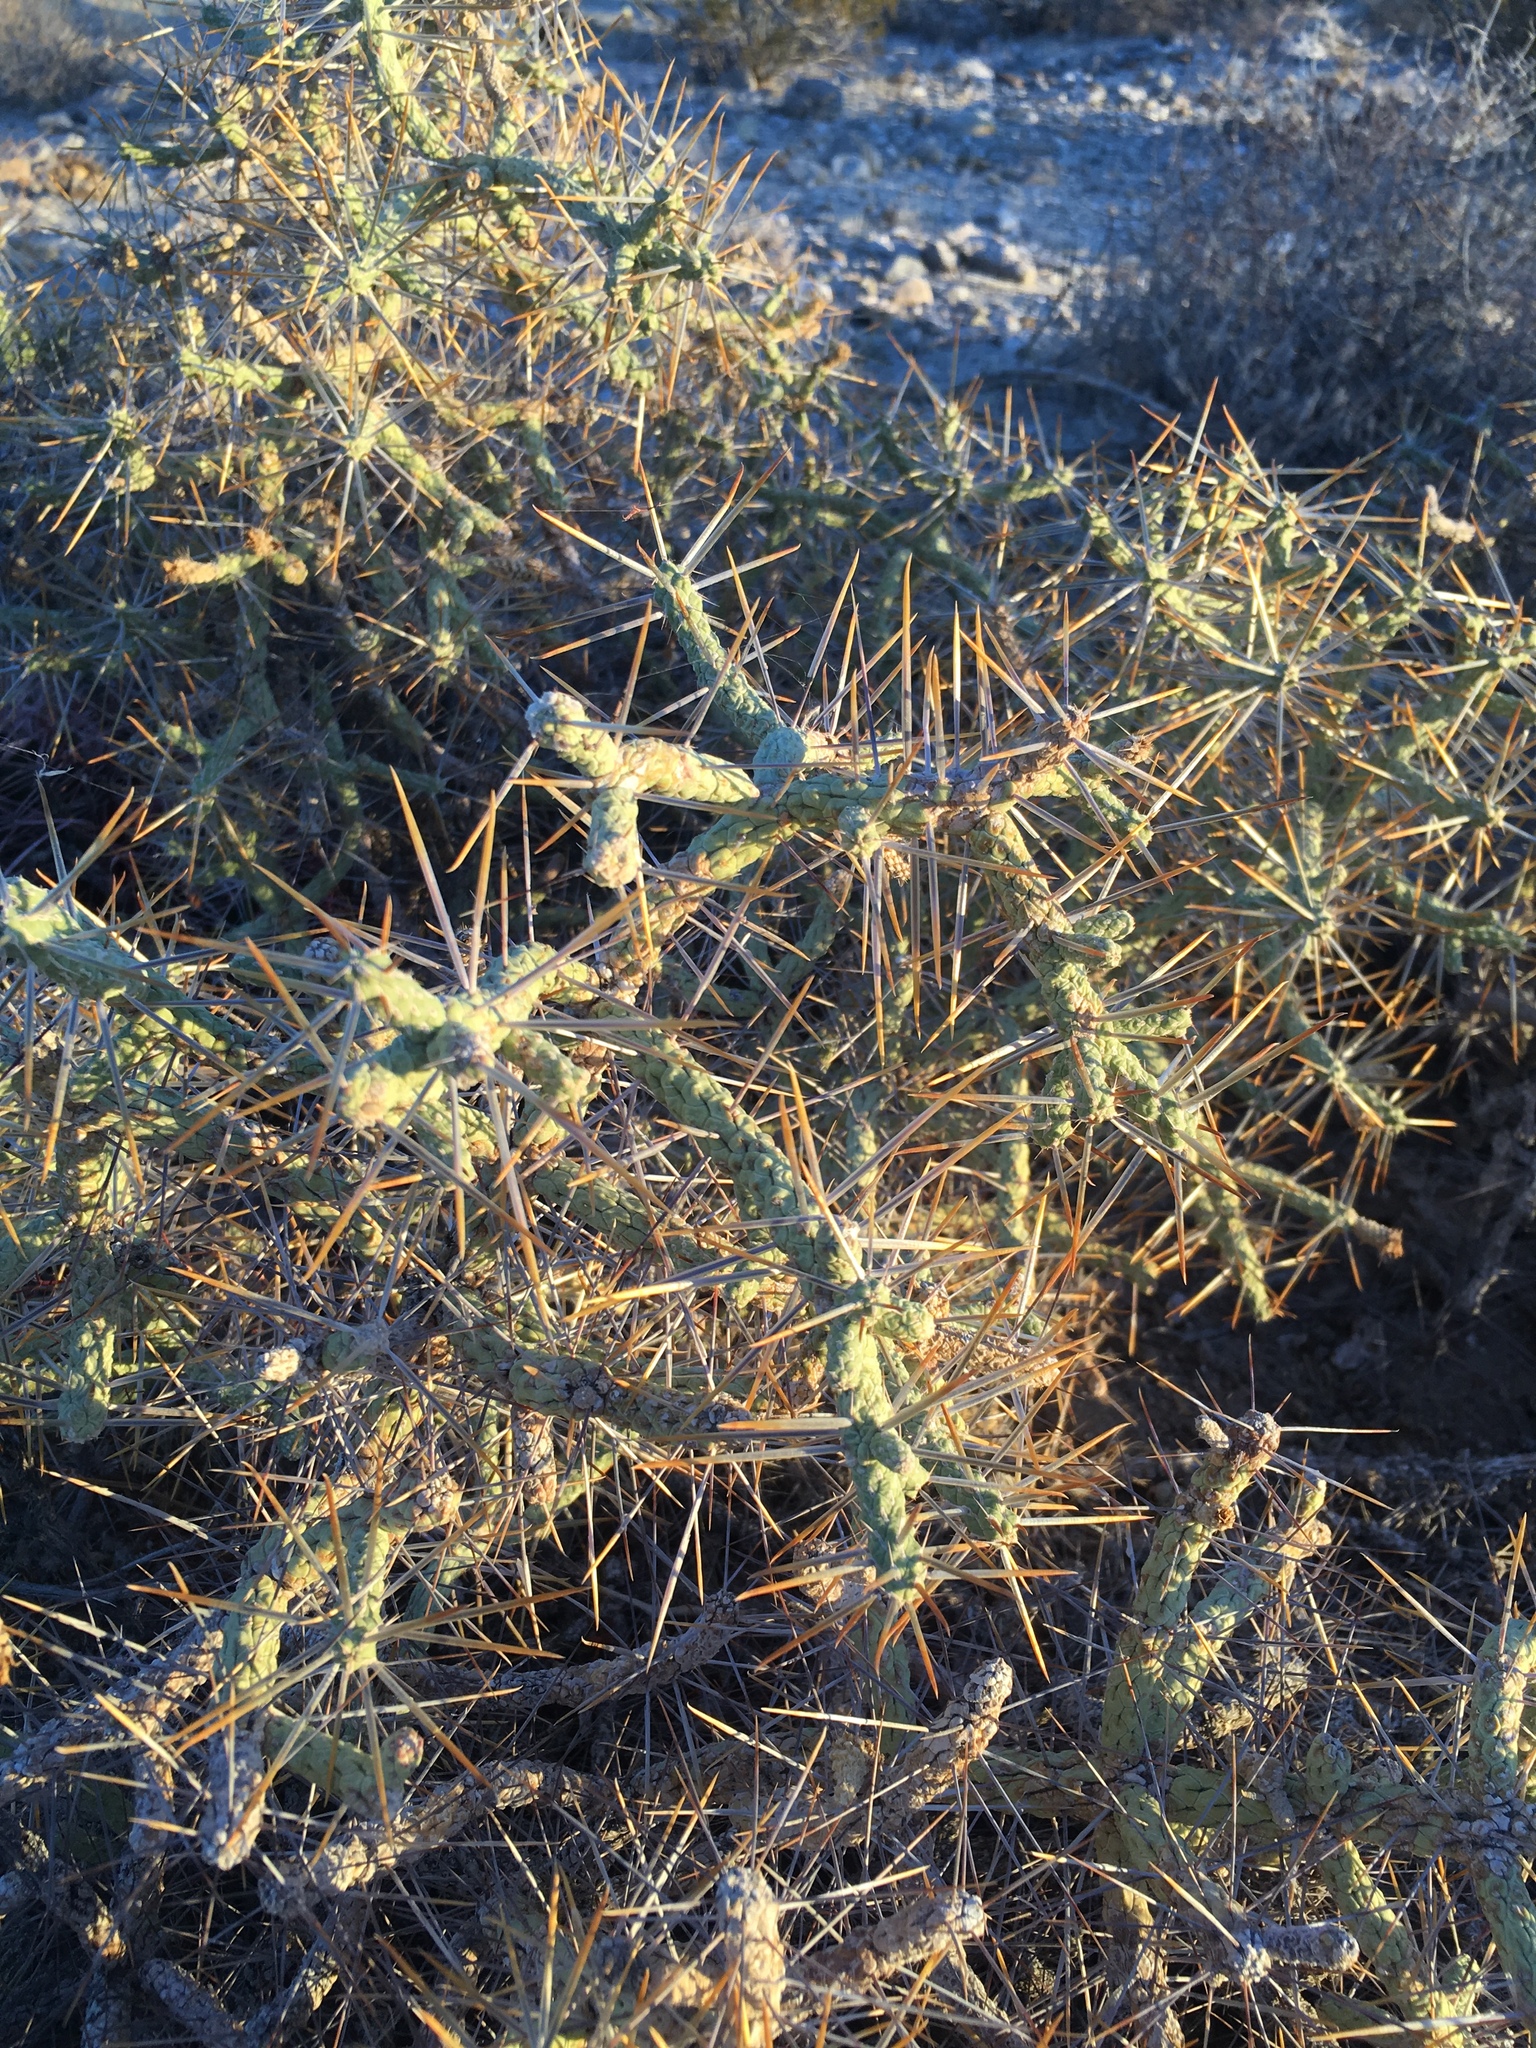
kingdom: Plantae
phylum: Tracheophyta
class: Magnoliopsida
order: Caryophyllales
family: Cactaceae
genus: Cylindropuntia
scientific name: Cylindropuntia ramosissima
